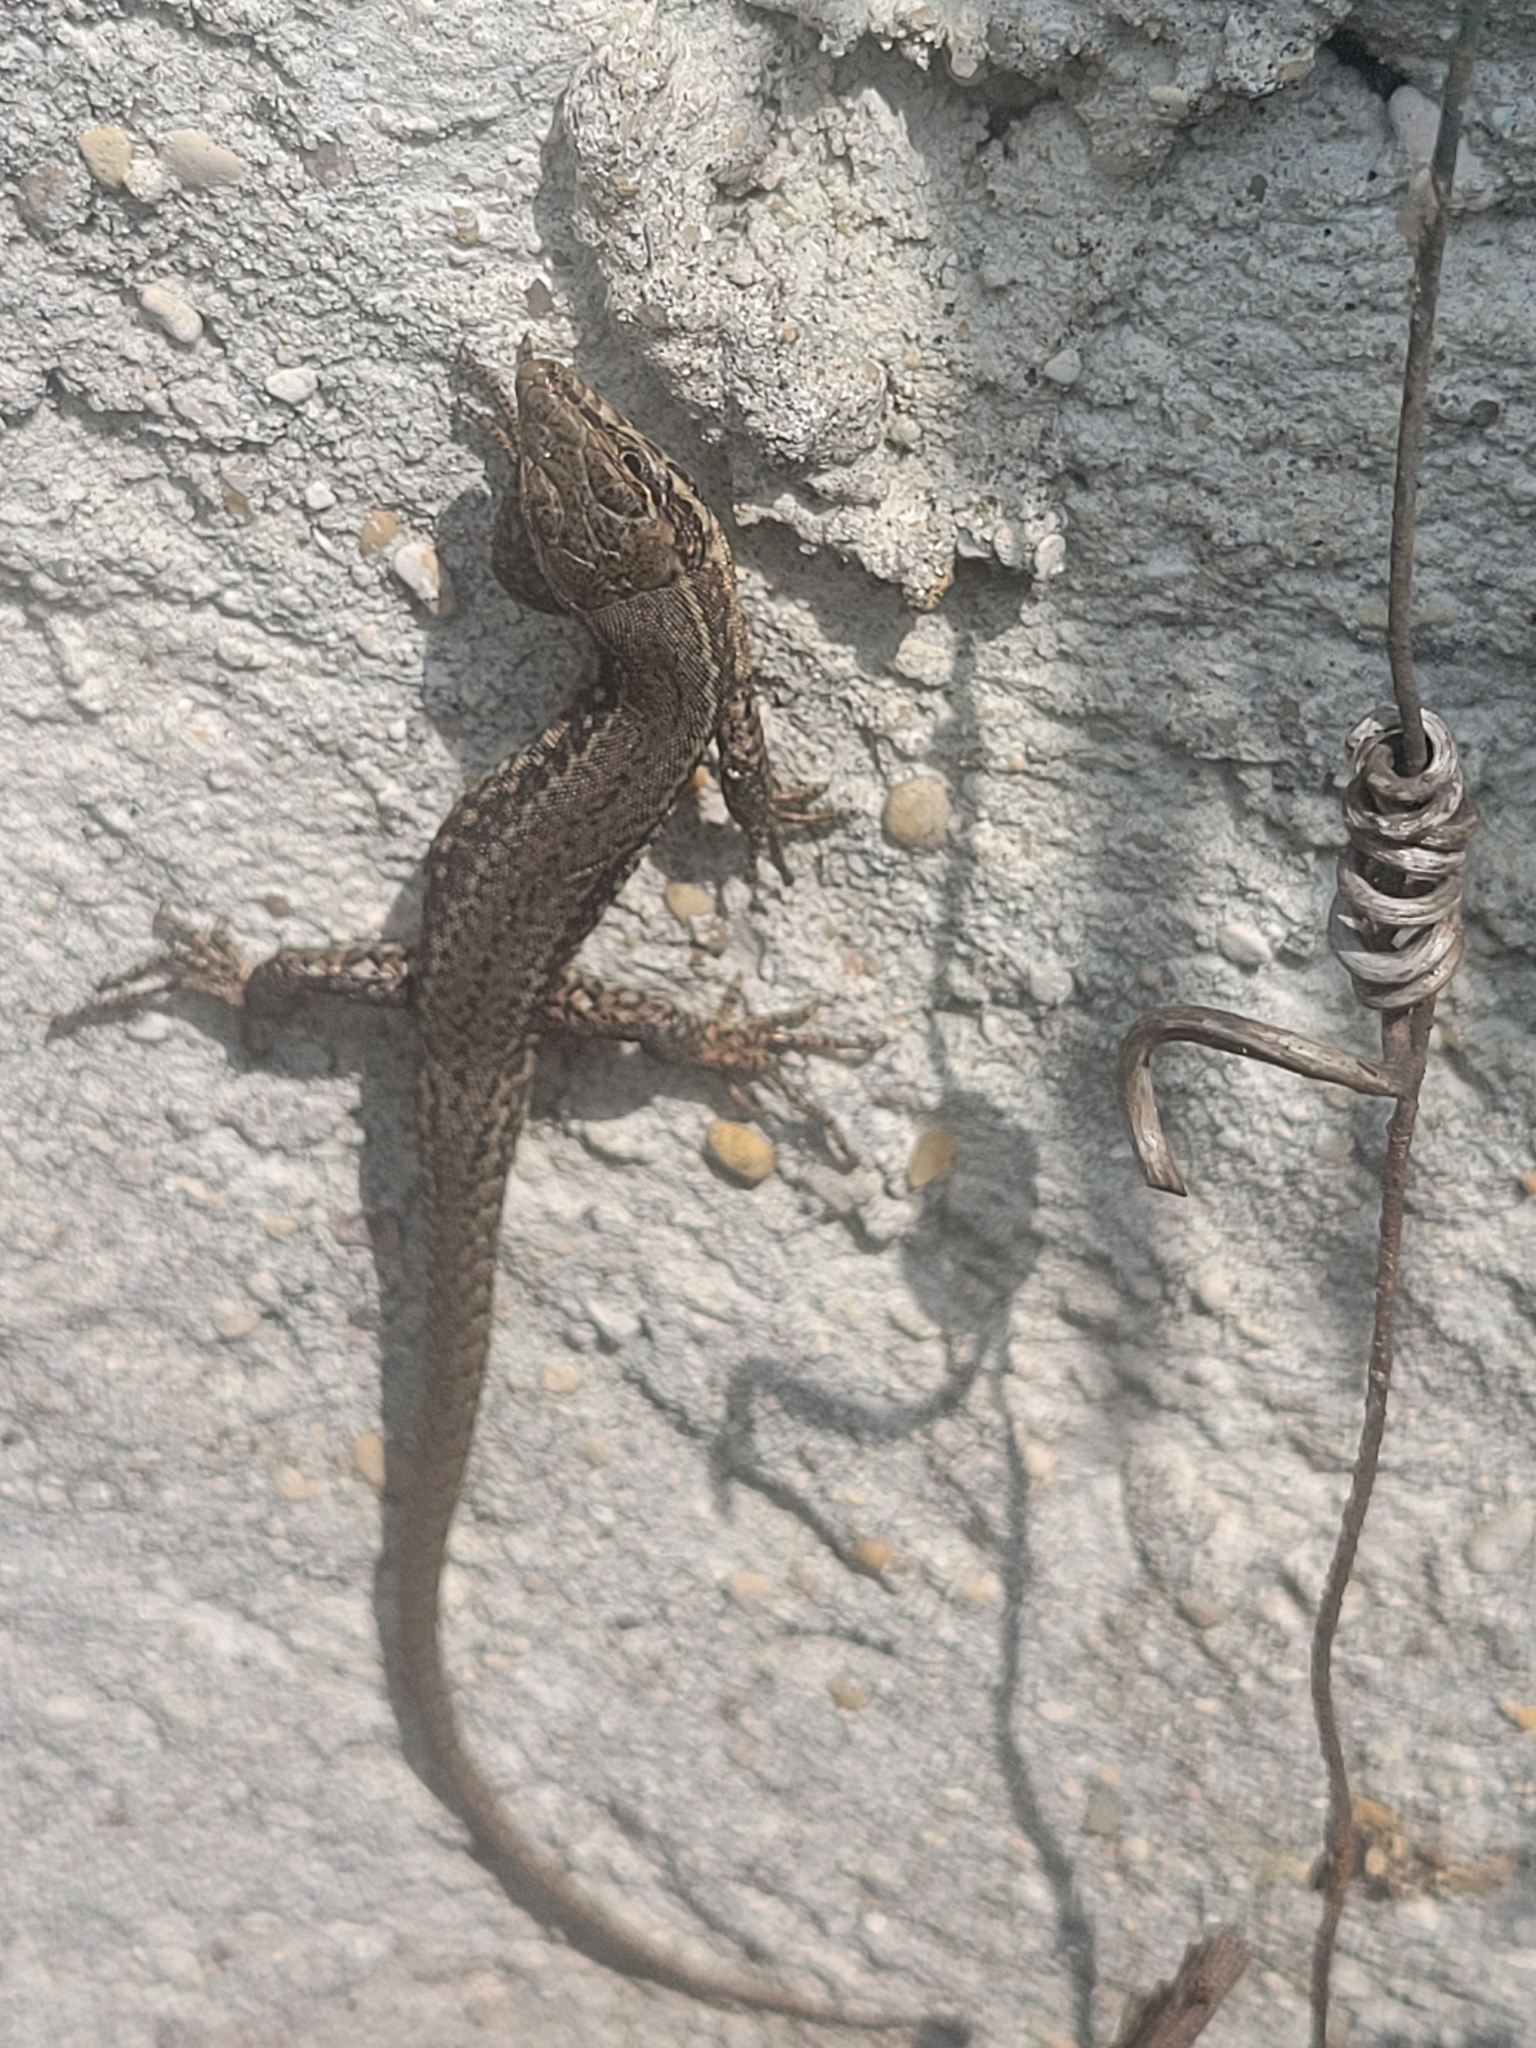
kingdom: Animalia
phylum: Chordata
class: Squamata
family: Lacertidae
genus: Podarcis
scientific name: Podarcis muralis
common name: Common wall lizard
